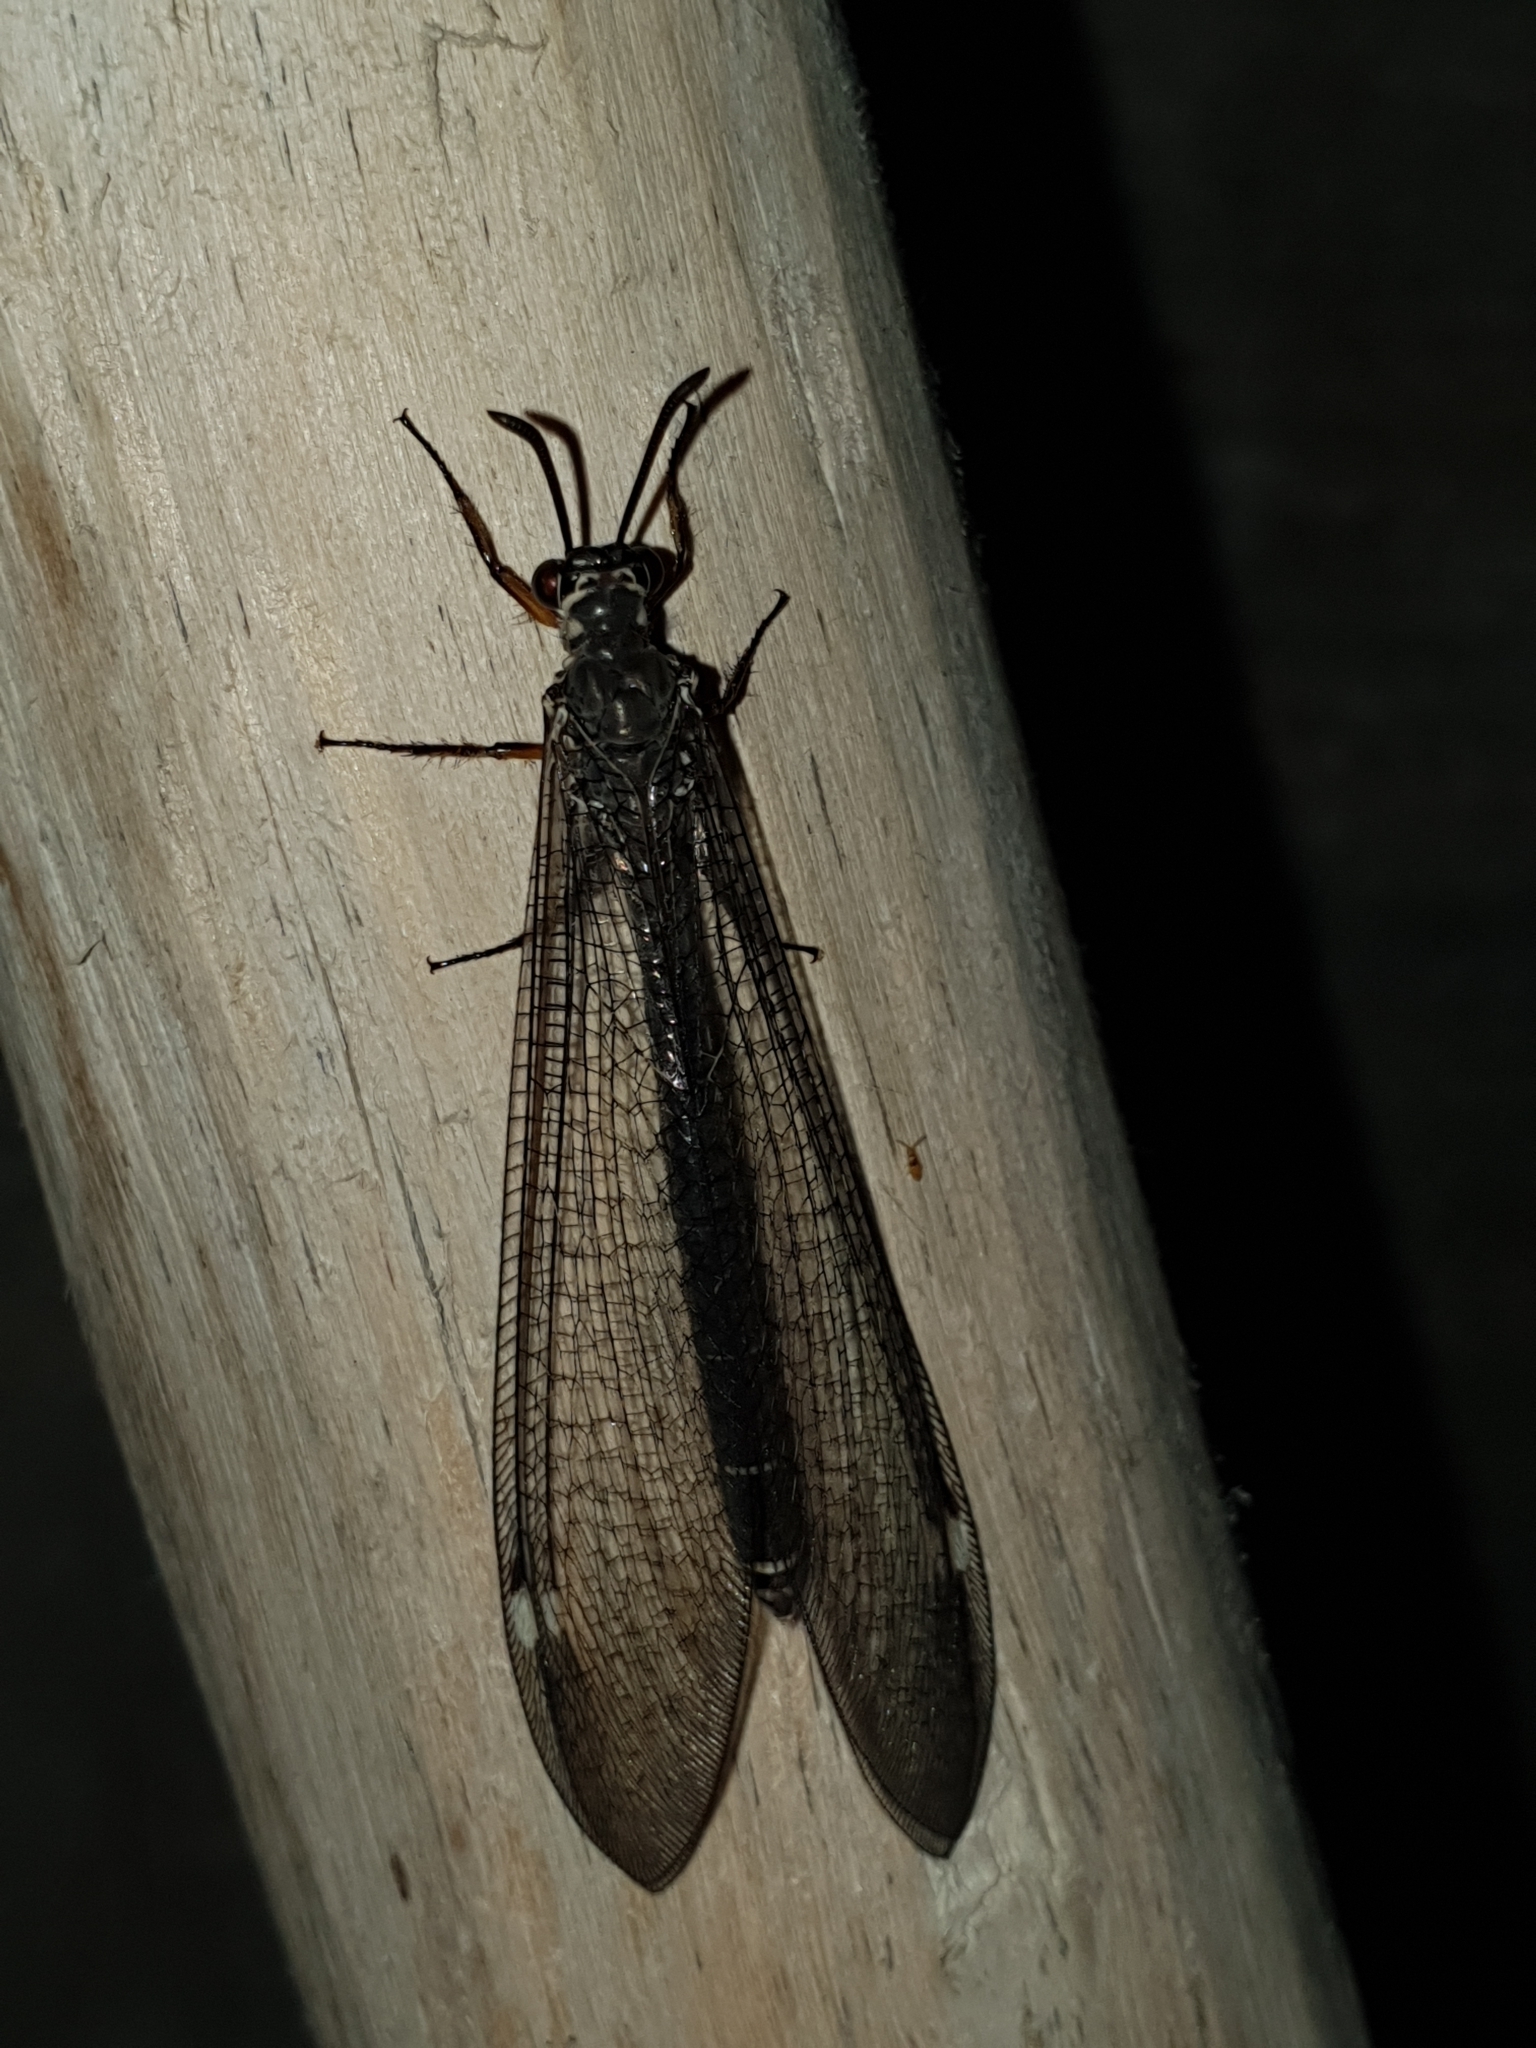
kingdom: Animalia
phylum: Arthropoda
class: Insecta
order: Neuroptera
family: Myrmeleontidae
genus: Myrmeleon
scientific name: Myrmeleon formicarius
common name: Ant-lion
